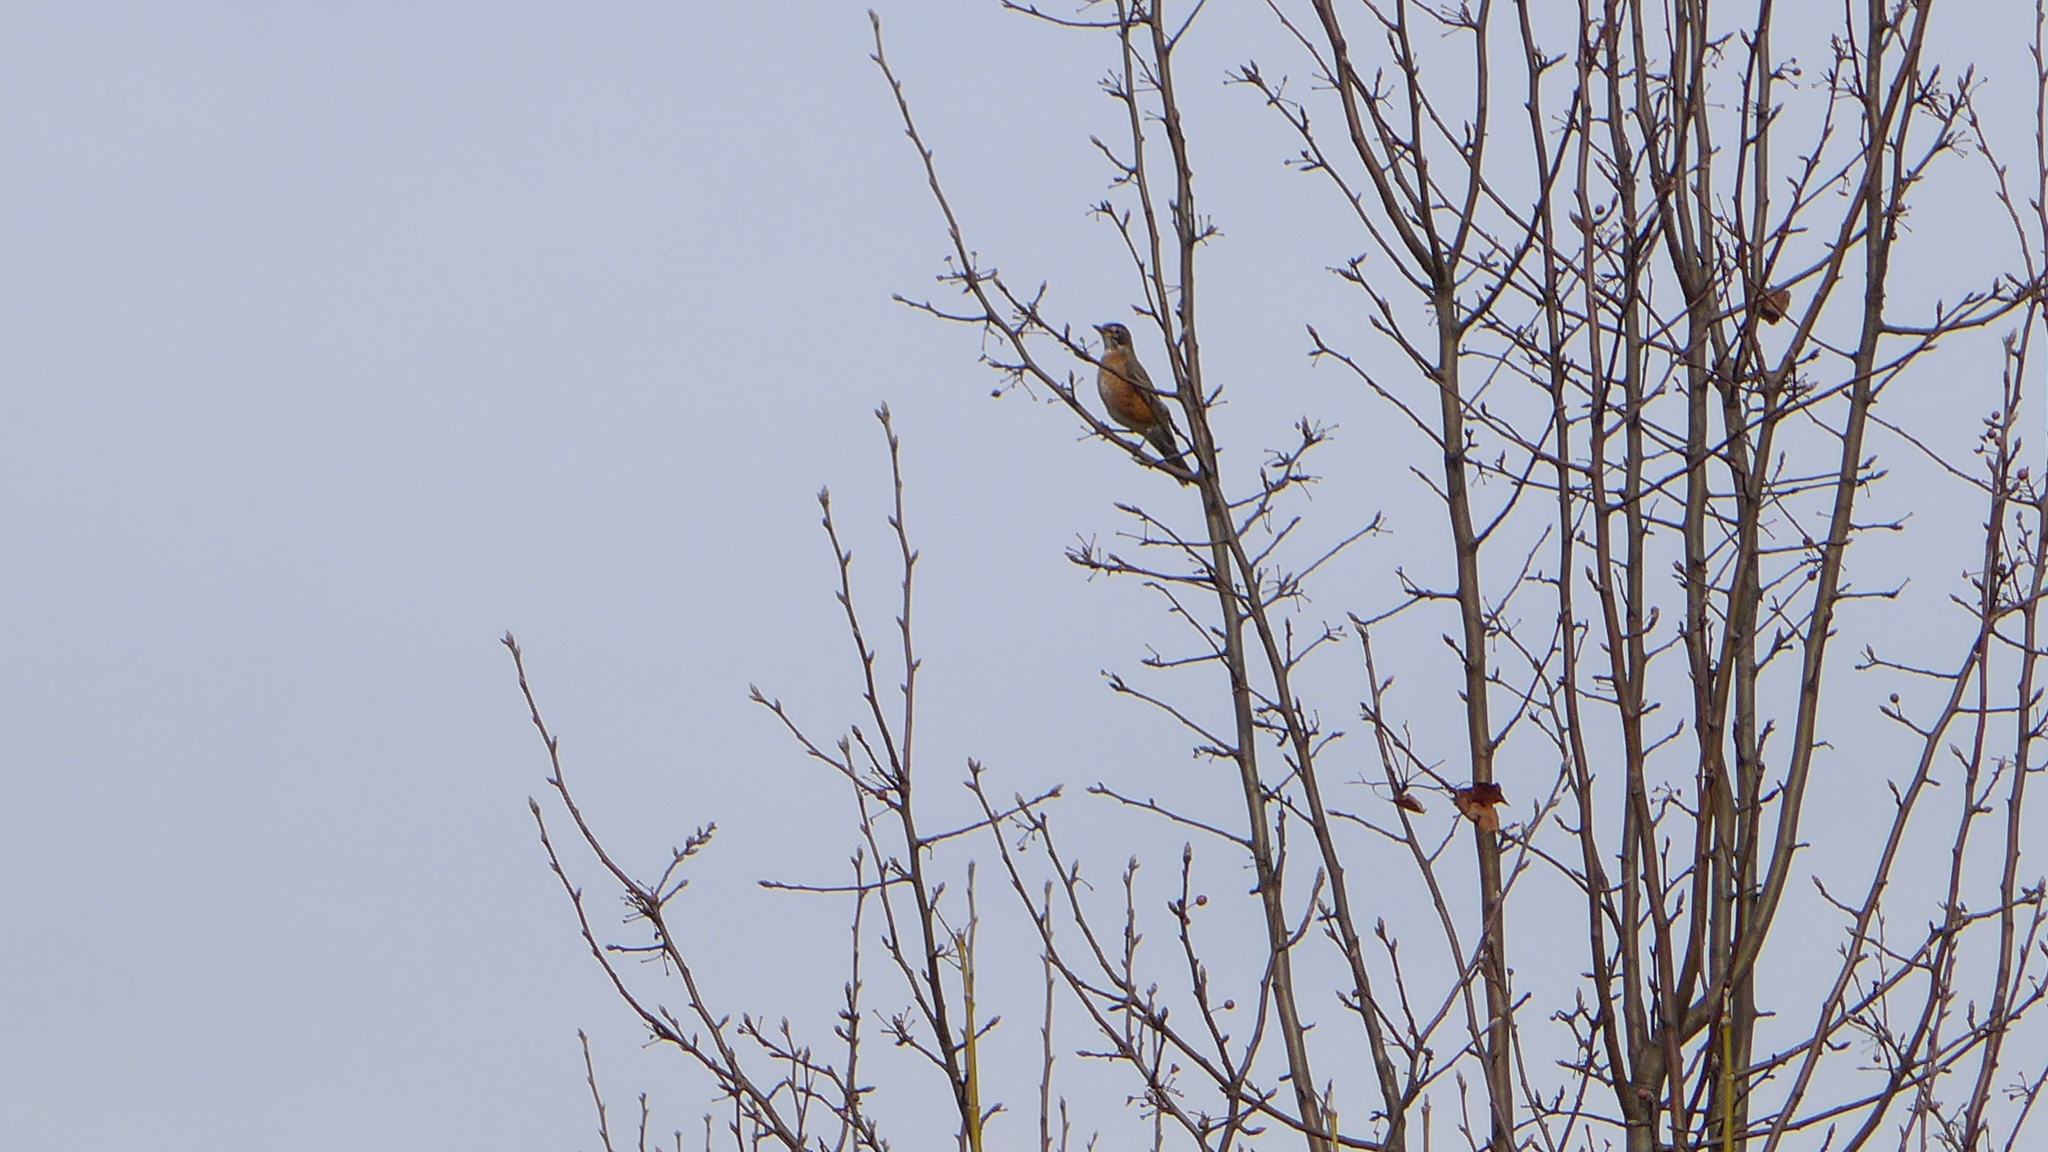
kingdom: Animalia
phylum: Chordata
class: Aves
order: Passeriformes
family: Turdidae
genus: Turdus
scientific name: Turdus migratorius
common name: American robin
